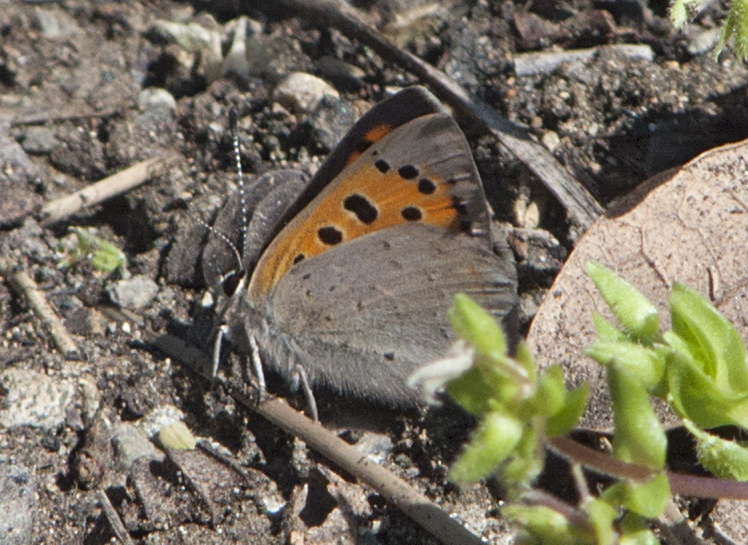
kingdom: Animalia
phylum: Arthropoda
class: Insecta
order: Lepidoptera
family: Lycaenidae
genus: Lycaena
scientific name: Lycaena phlaeas
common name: Small copper
